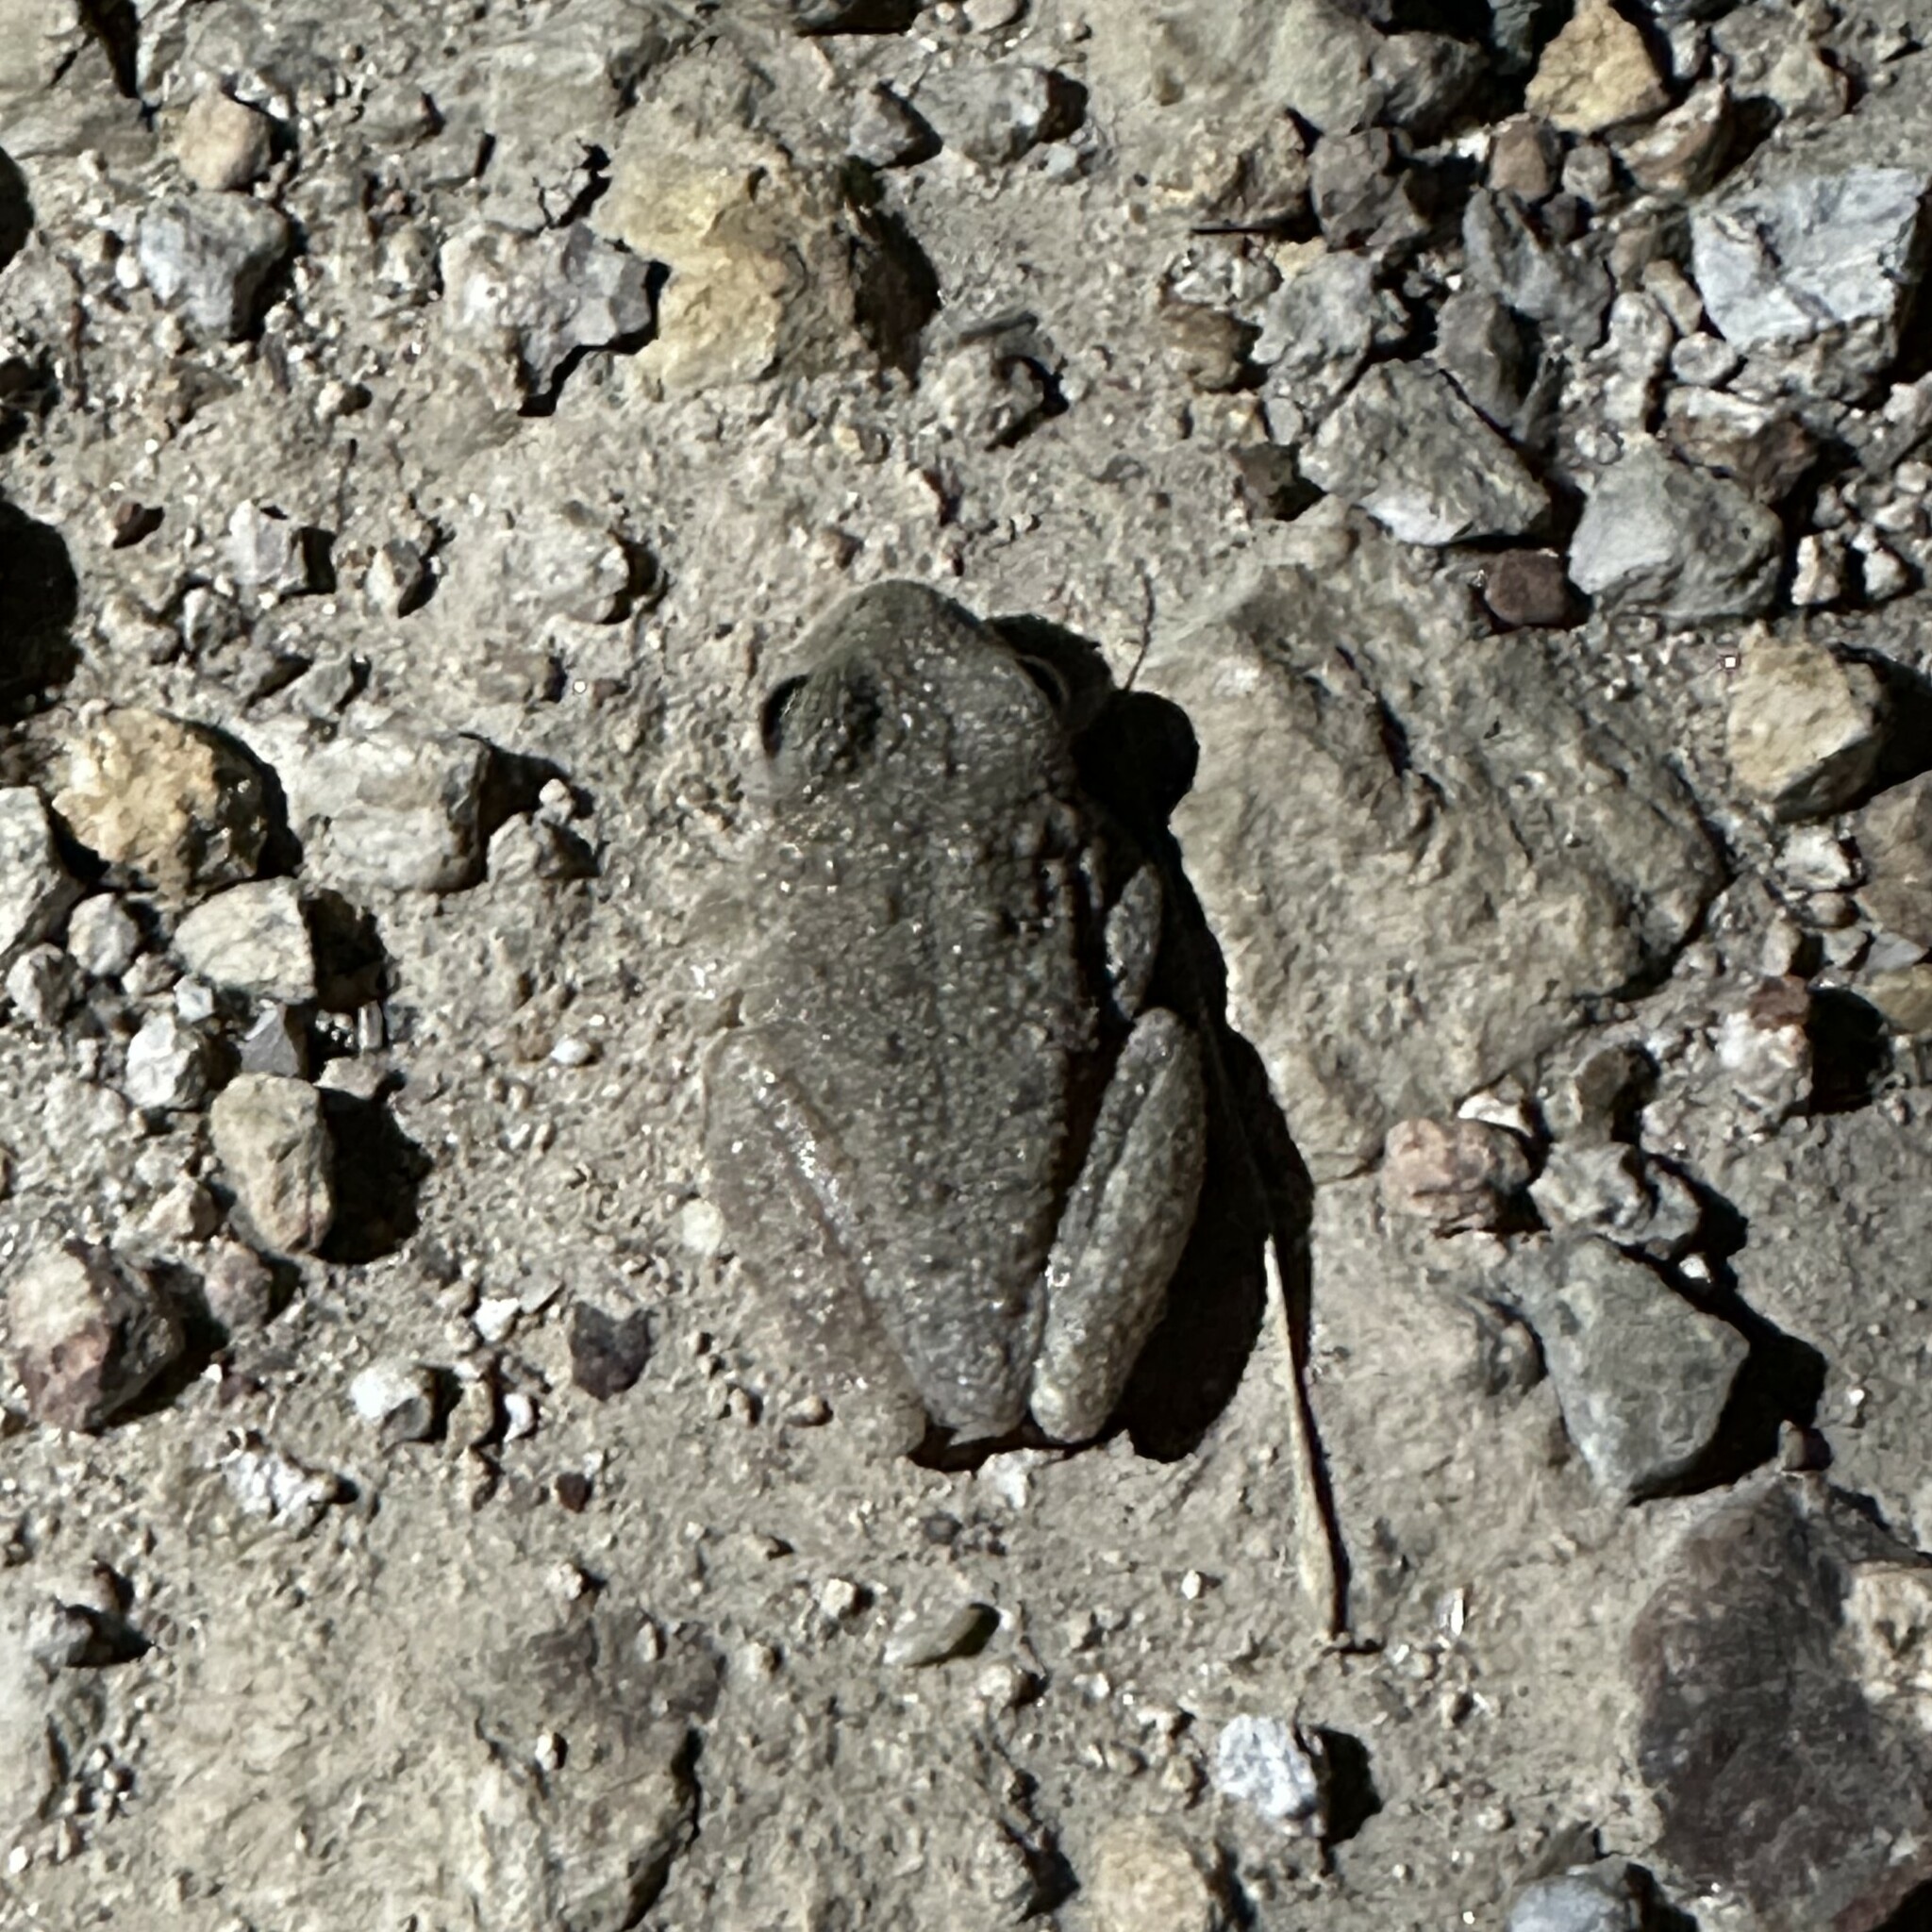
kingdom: Animalia
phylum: Chordata
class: Amphibia
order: Anura
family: Hylidae
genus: Dryophytes
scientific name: Dryophytes arenicolor
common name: Canyon treefrog
